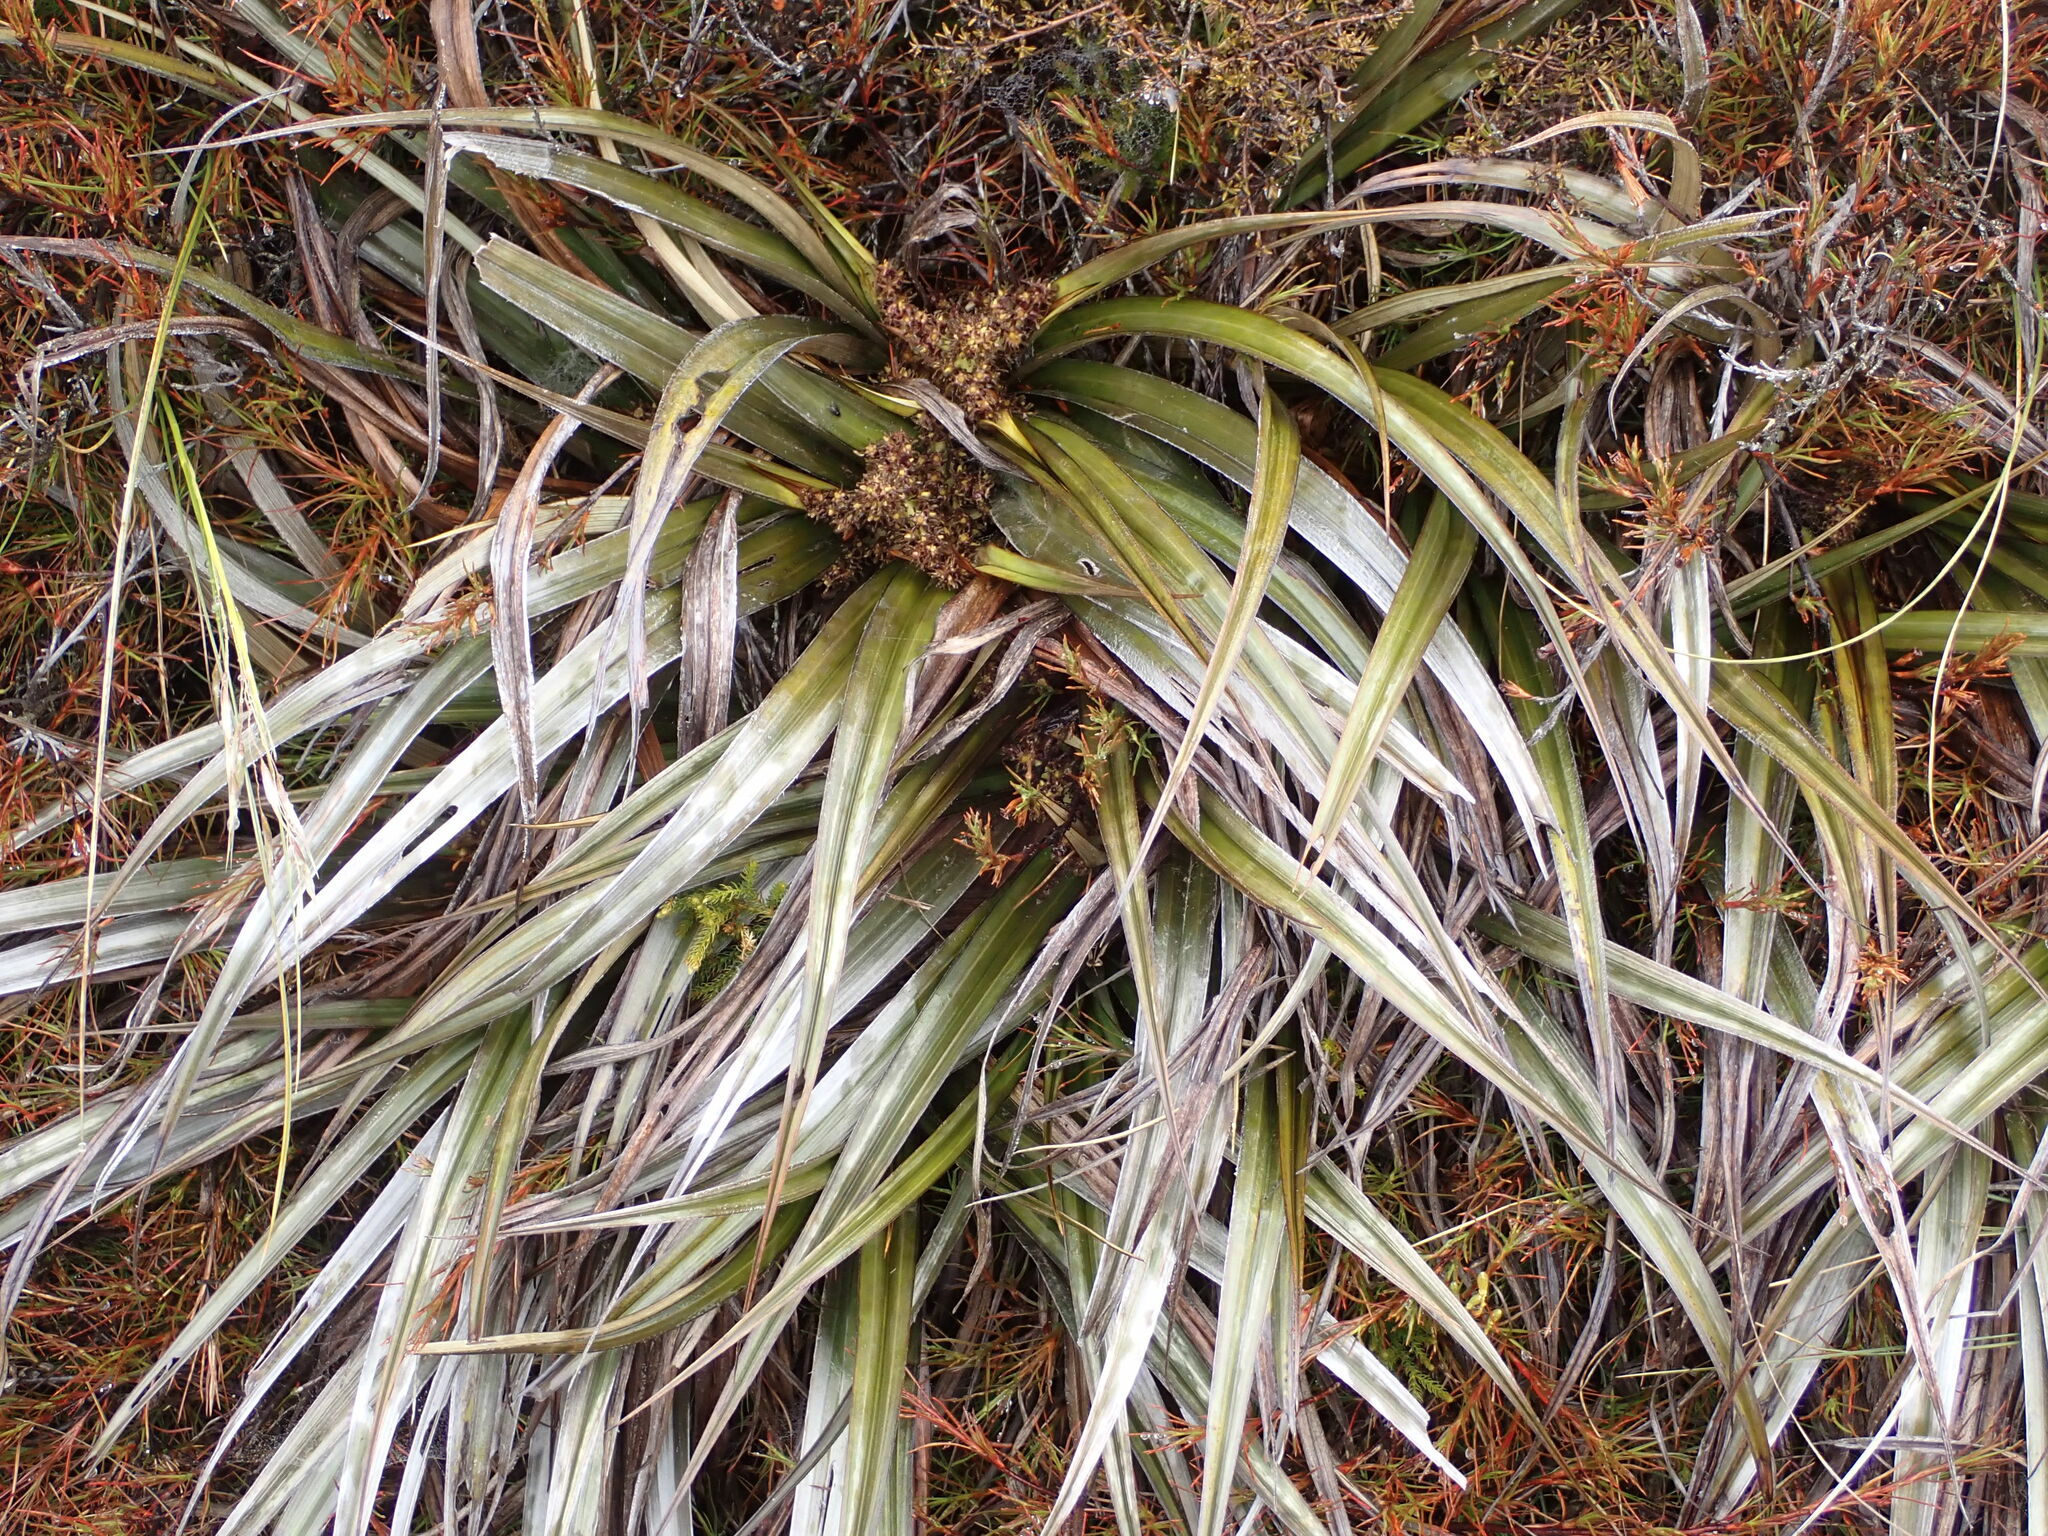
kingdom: Plantae
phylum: Tracheophyta
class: Liliopsida
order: Asparagales
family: Asteliaceae
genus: Astelia
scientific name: Astelia nervosa
